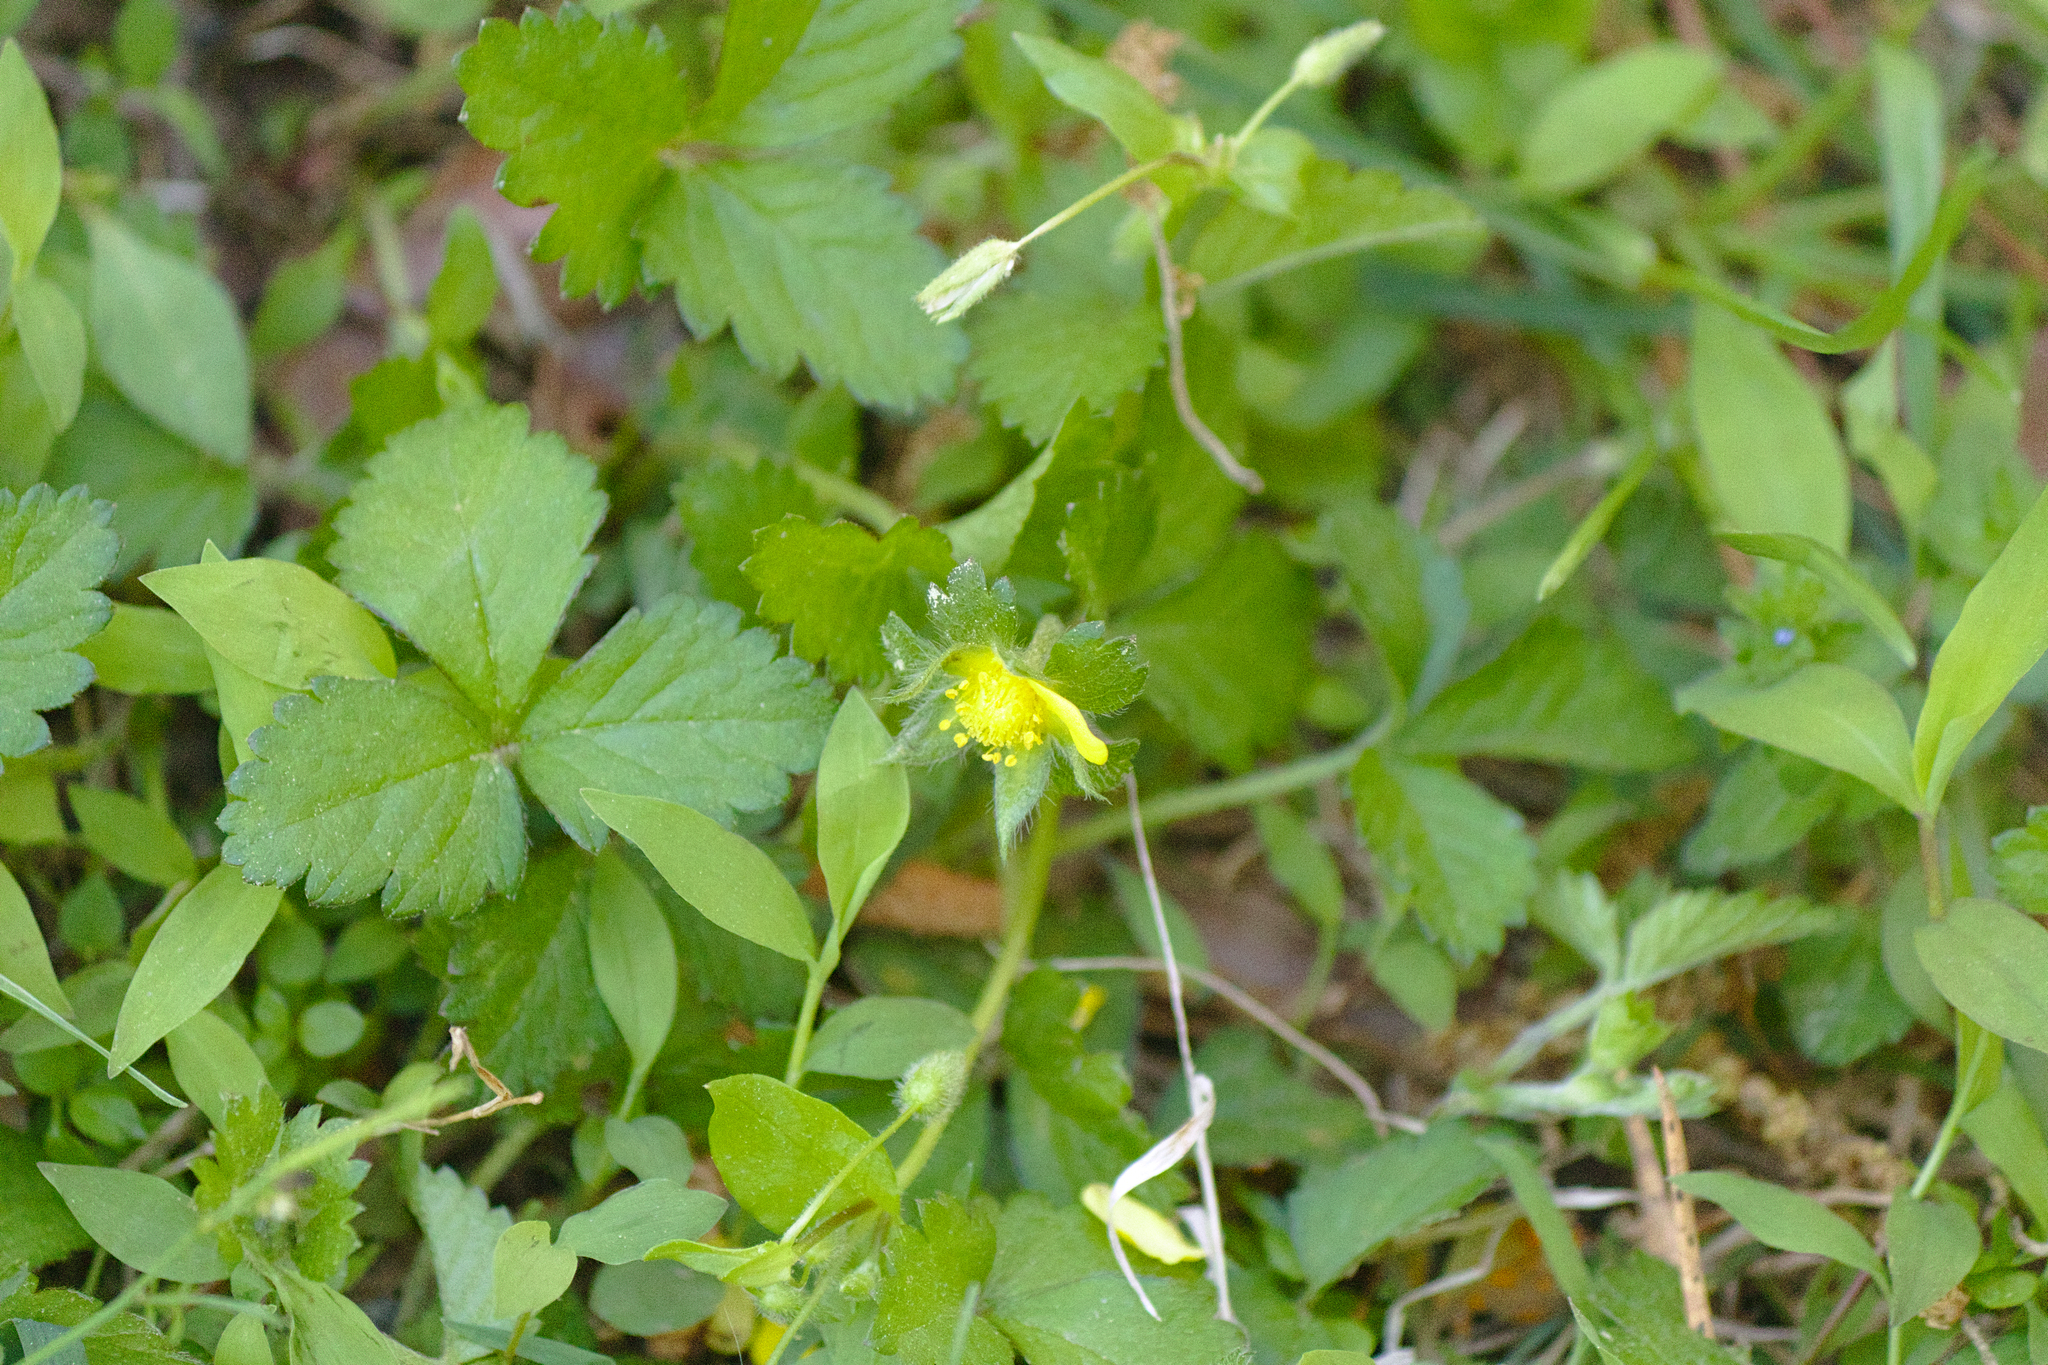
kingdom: Plantae
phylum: Tracheophyta
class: Magnoliopsida
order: Rosales
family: Rosaceae
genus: Potentilla
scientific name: Potentilla indica
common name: Yellow-flowered strawberry
